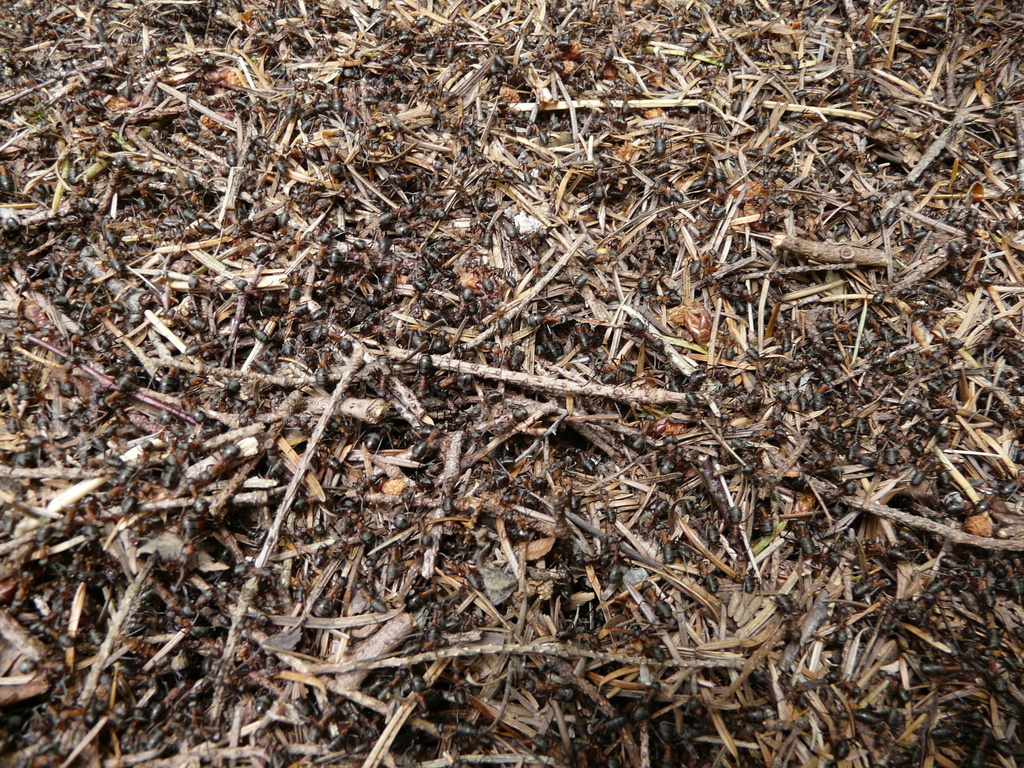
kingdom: Animalia
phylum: Arthropoda
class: Insecta
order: Hymenoptera
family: Formicidae
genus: Formica
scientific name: Formica
